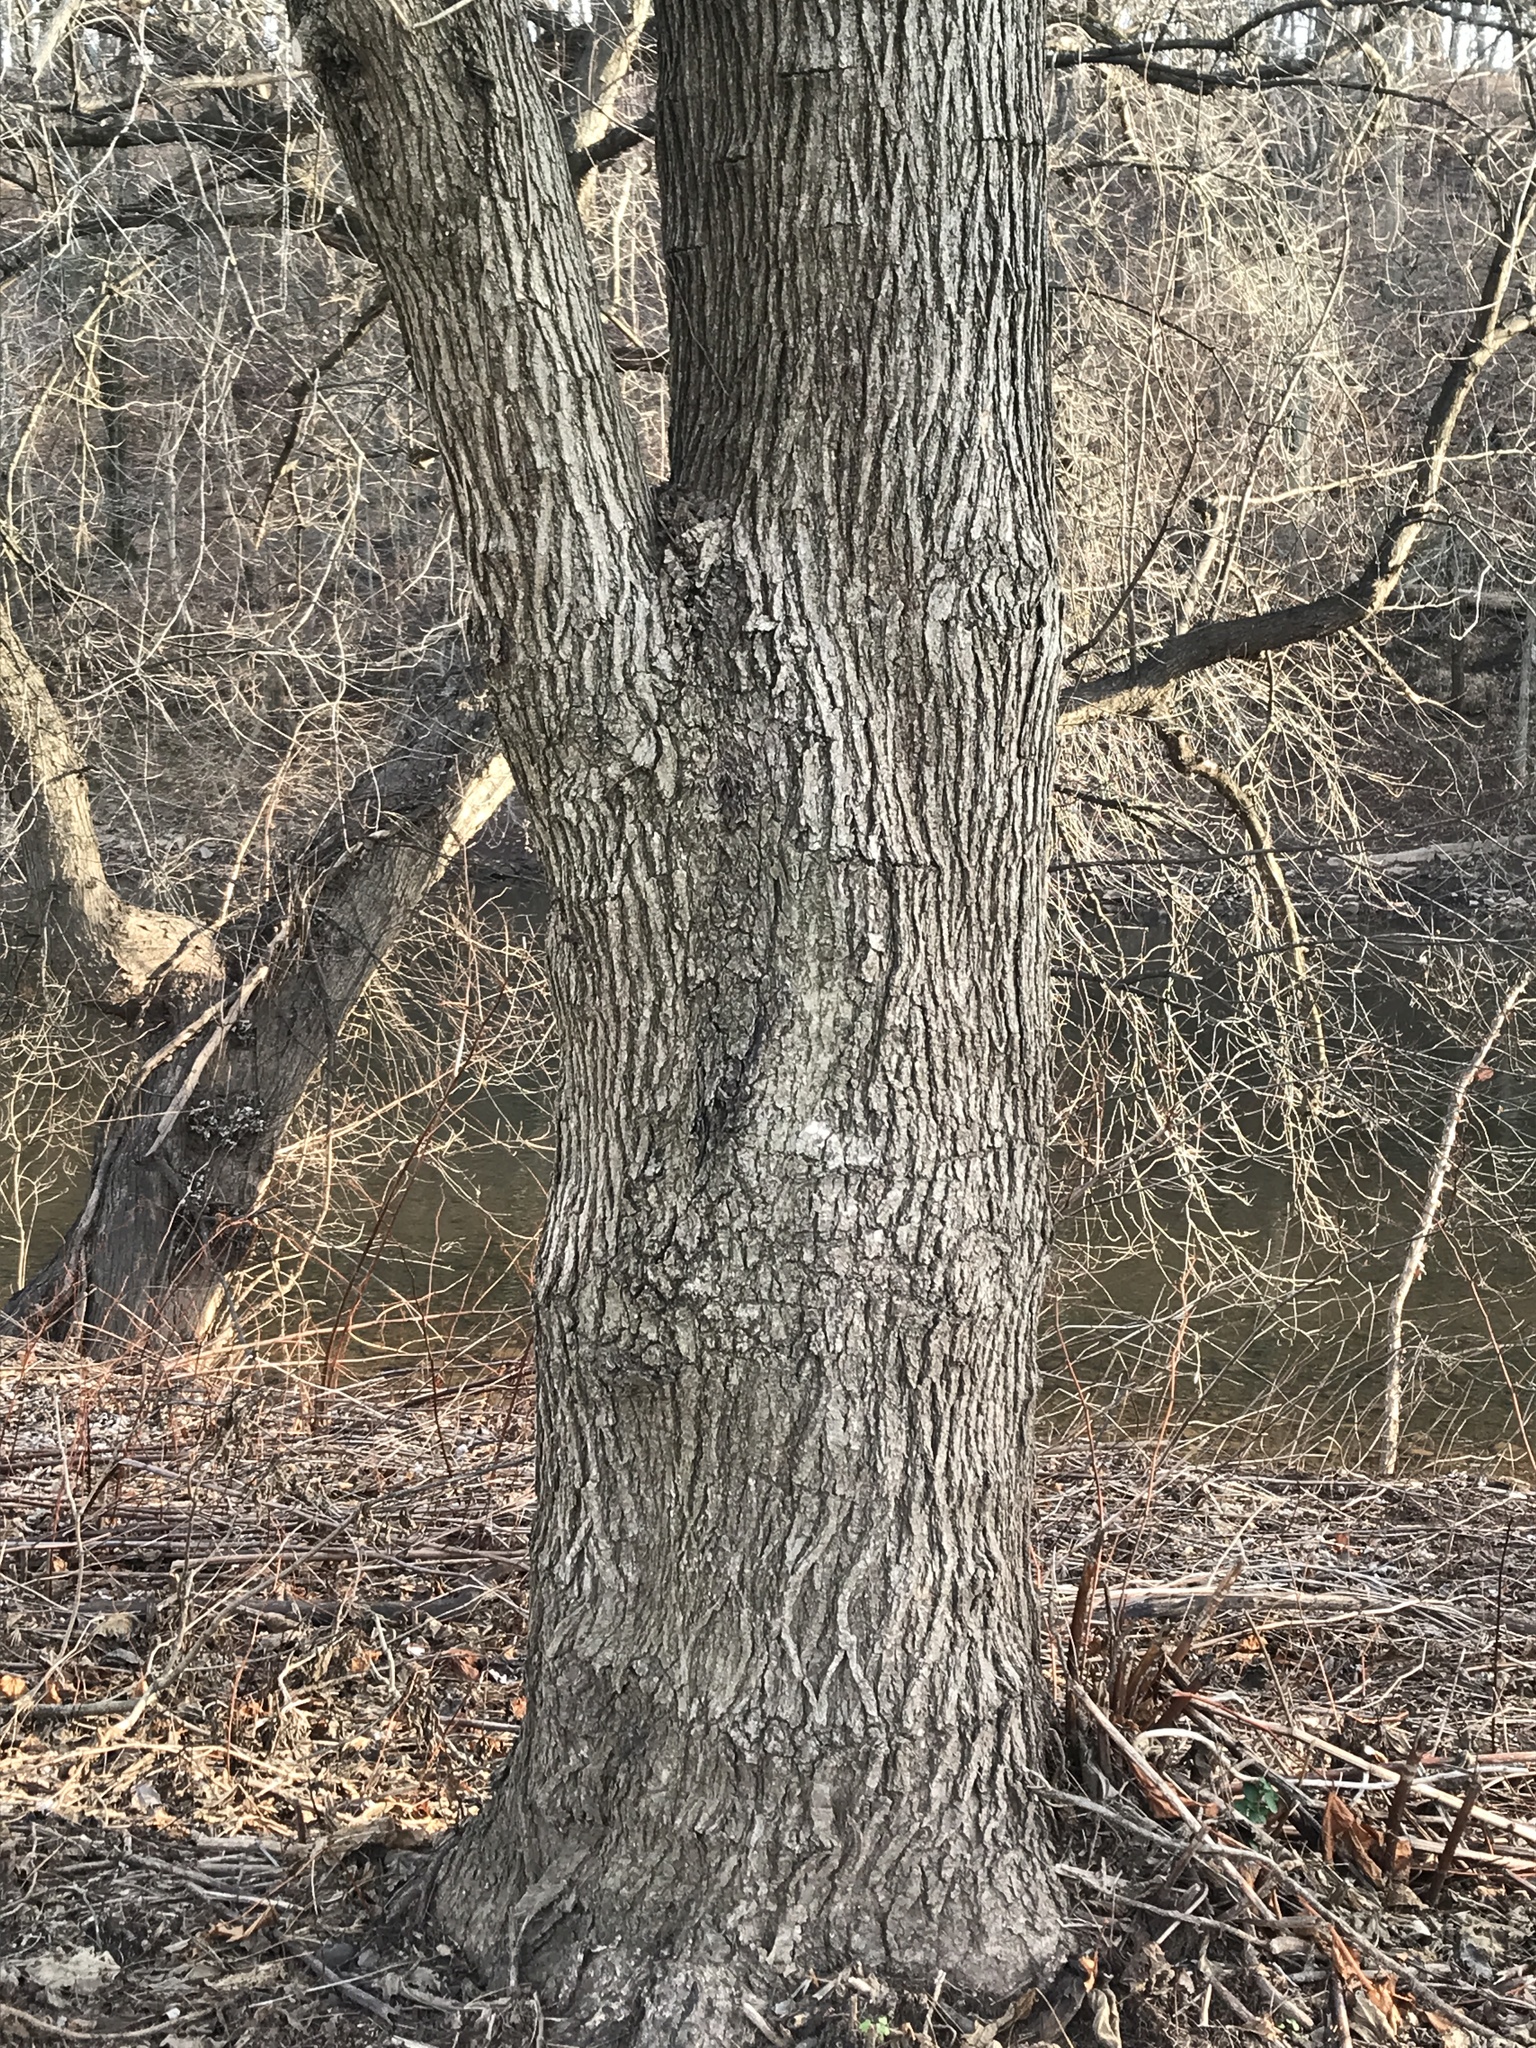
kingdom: Plantae
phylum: Tracheophyta
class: Magnoliopsida
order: Lamiales
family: Bignoniaceae
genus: Catalpa
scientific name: Catalpa
